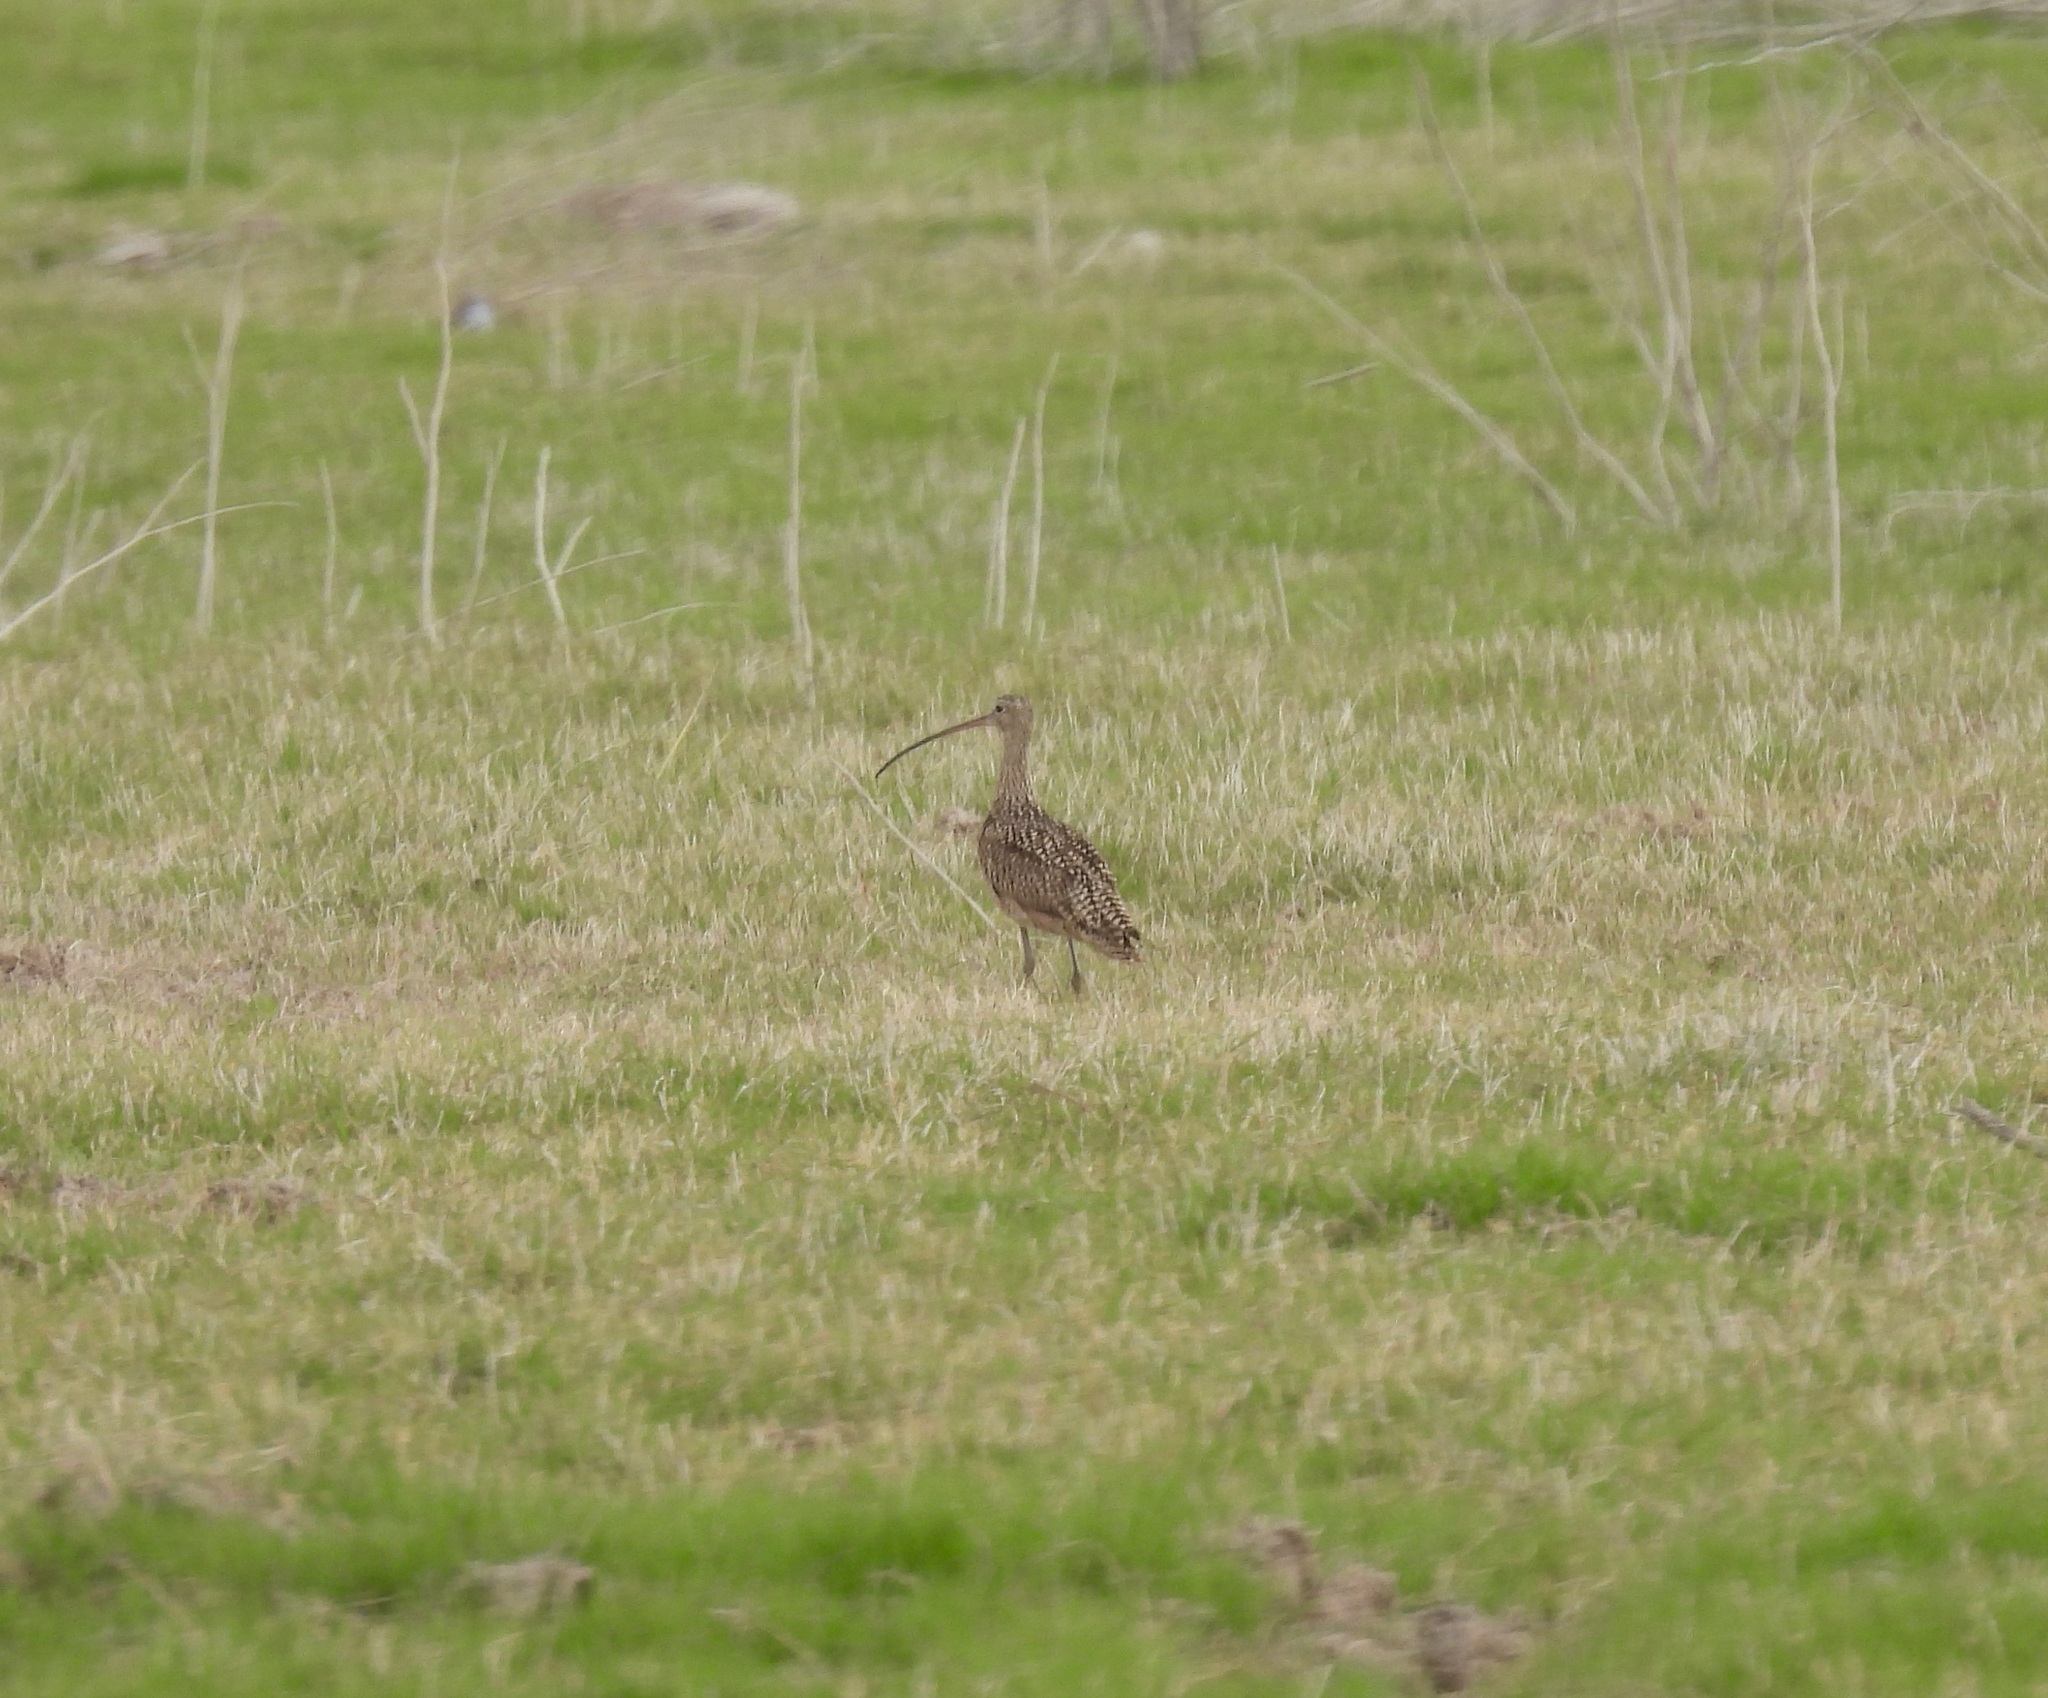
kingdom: Animalia
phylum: Chordata
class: Aves
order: Charadriiformes
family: Scolopacidae
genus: Numenius
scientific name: Numenius americanus
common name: Long-billed curlew
